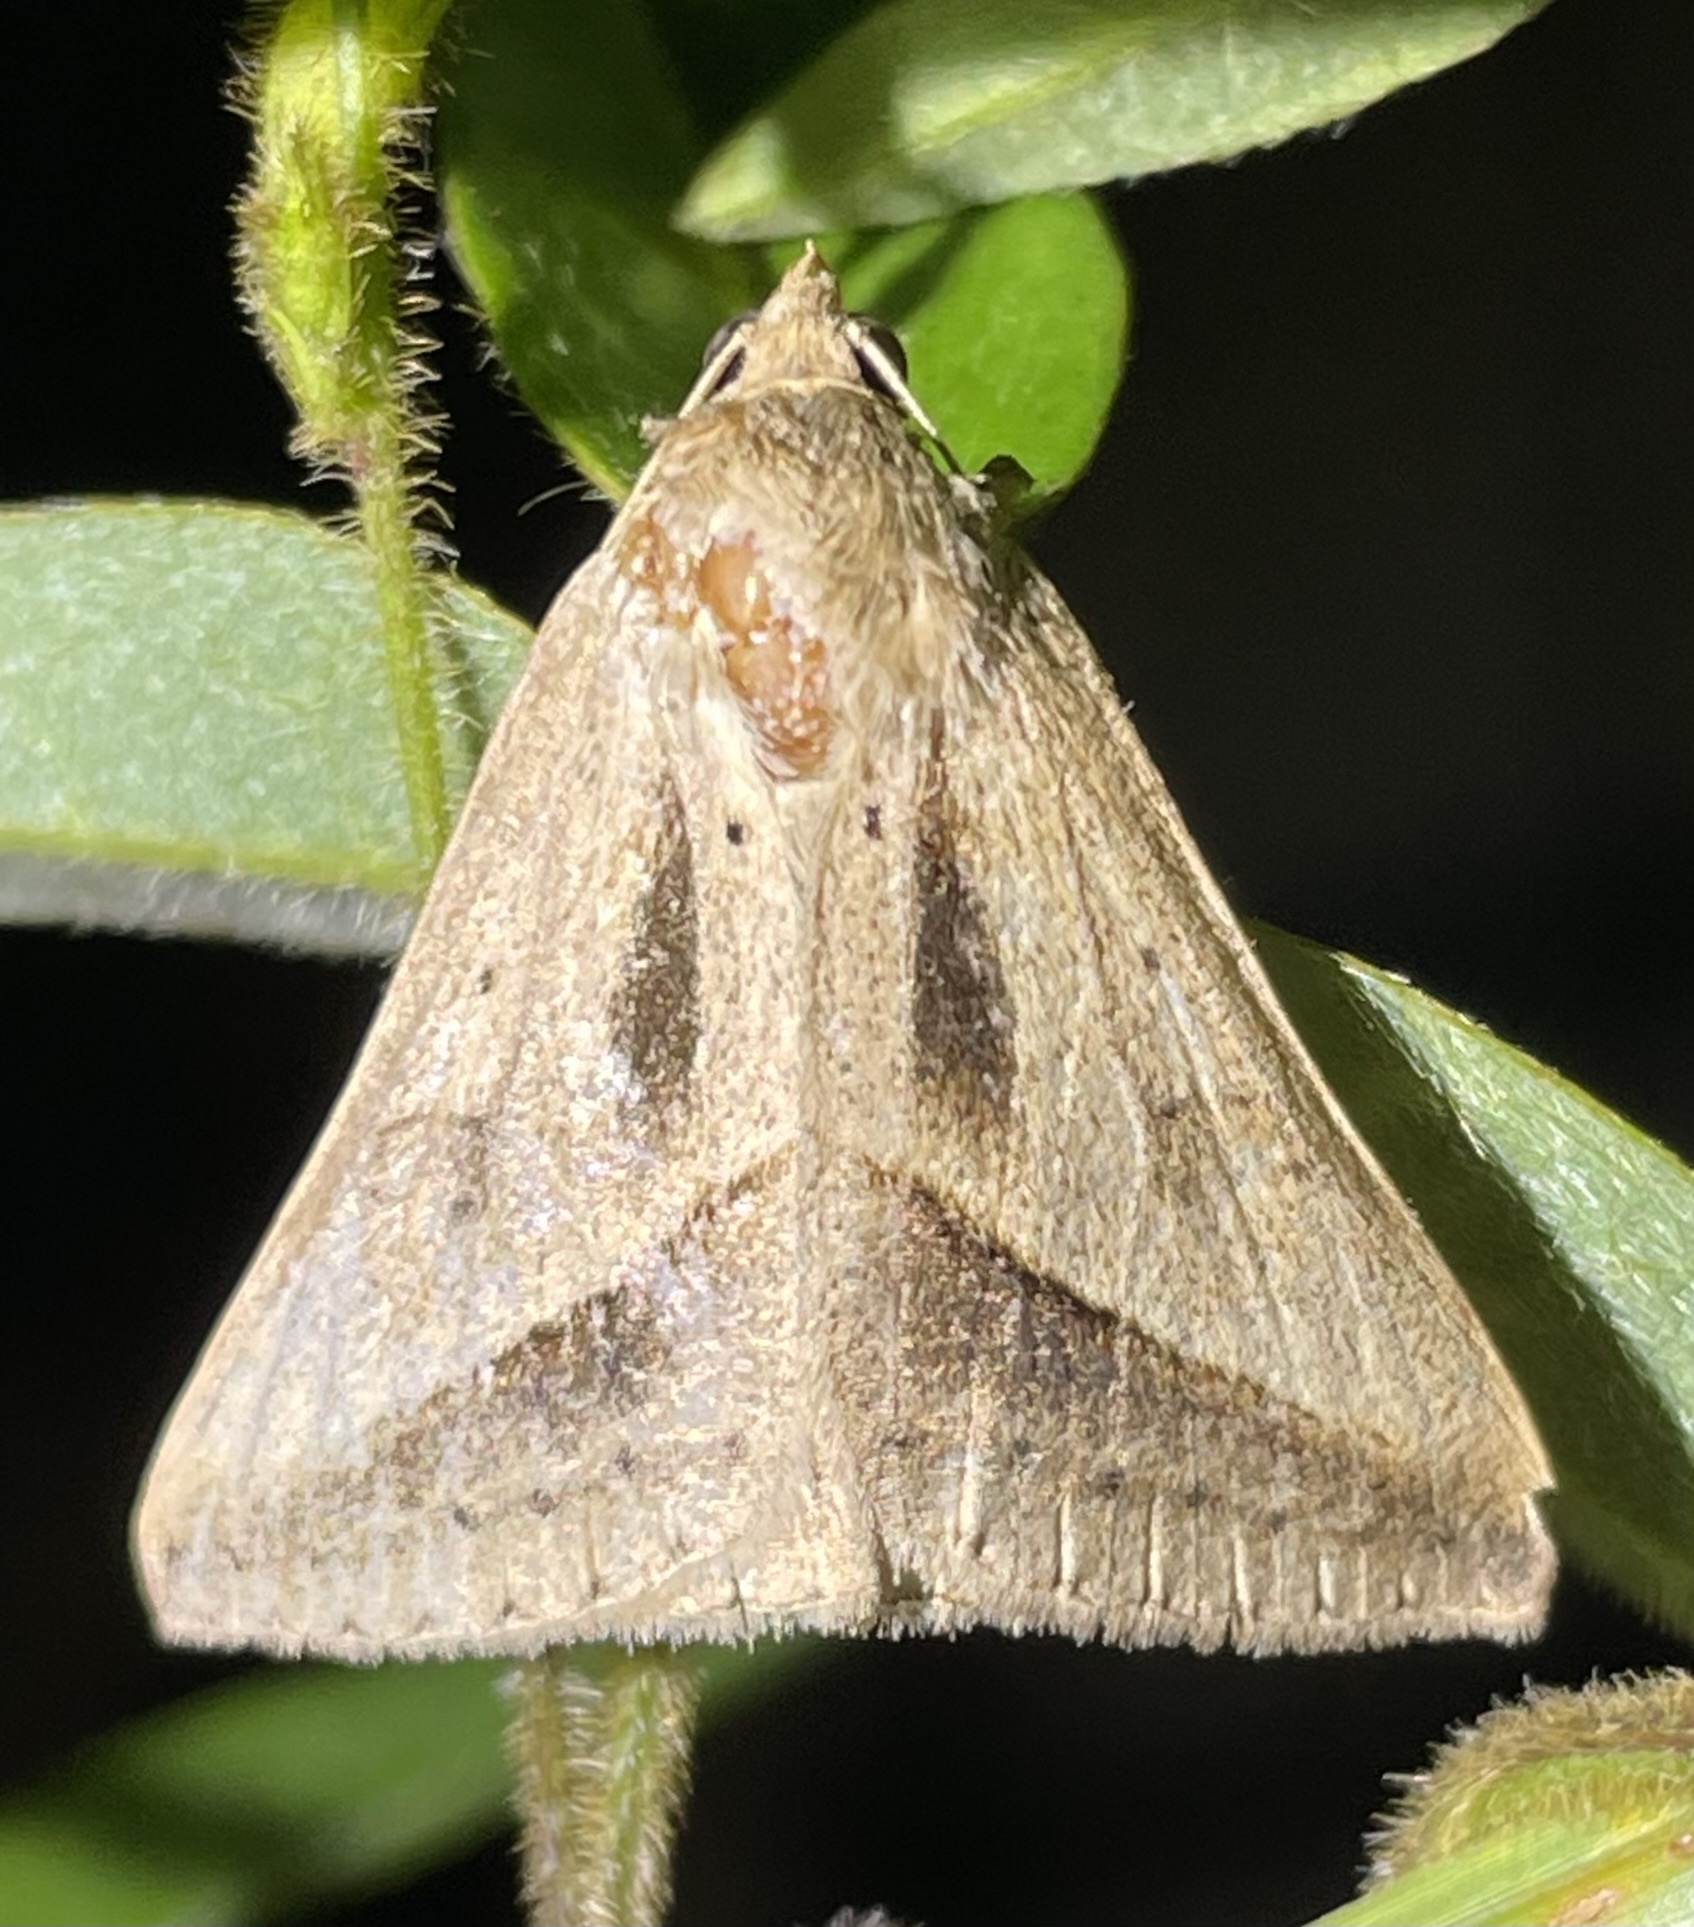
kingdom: Animalia
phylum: Arthropoda
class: Insecta
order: Lepidoptera
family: Erebidae
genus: Mocis
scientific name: Mocis proverai
